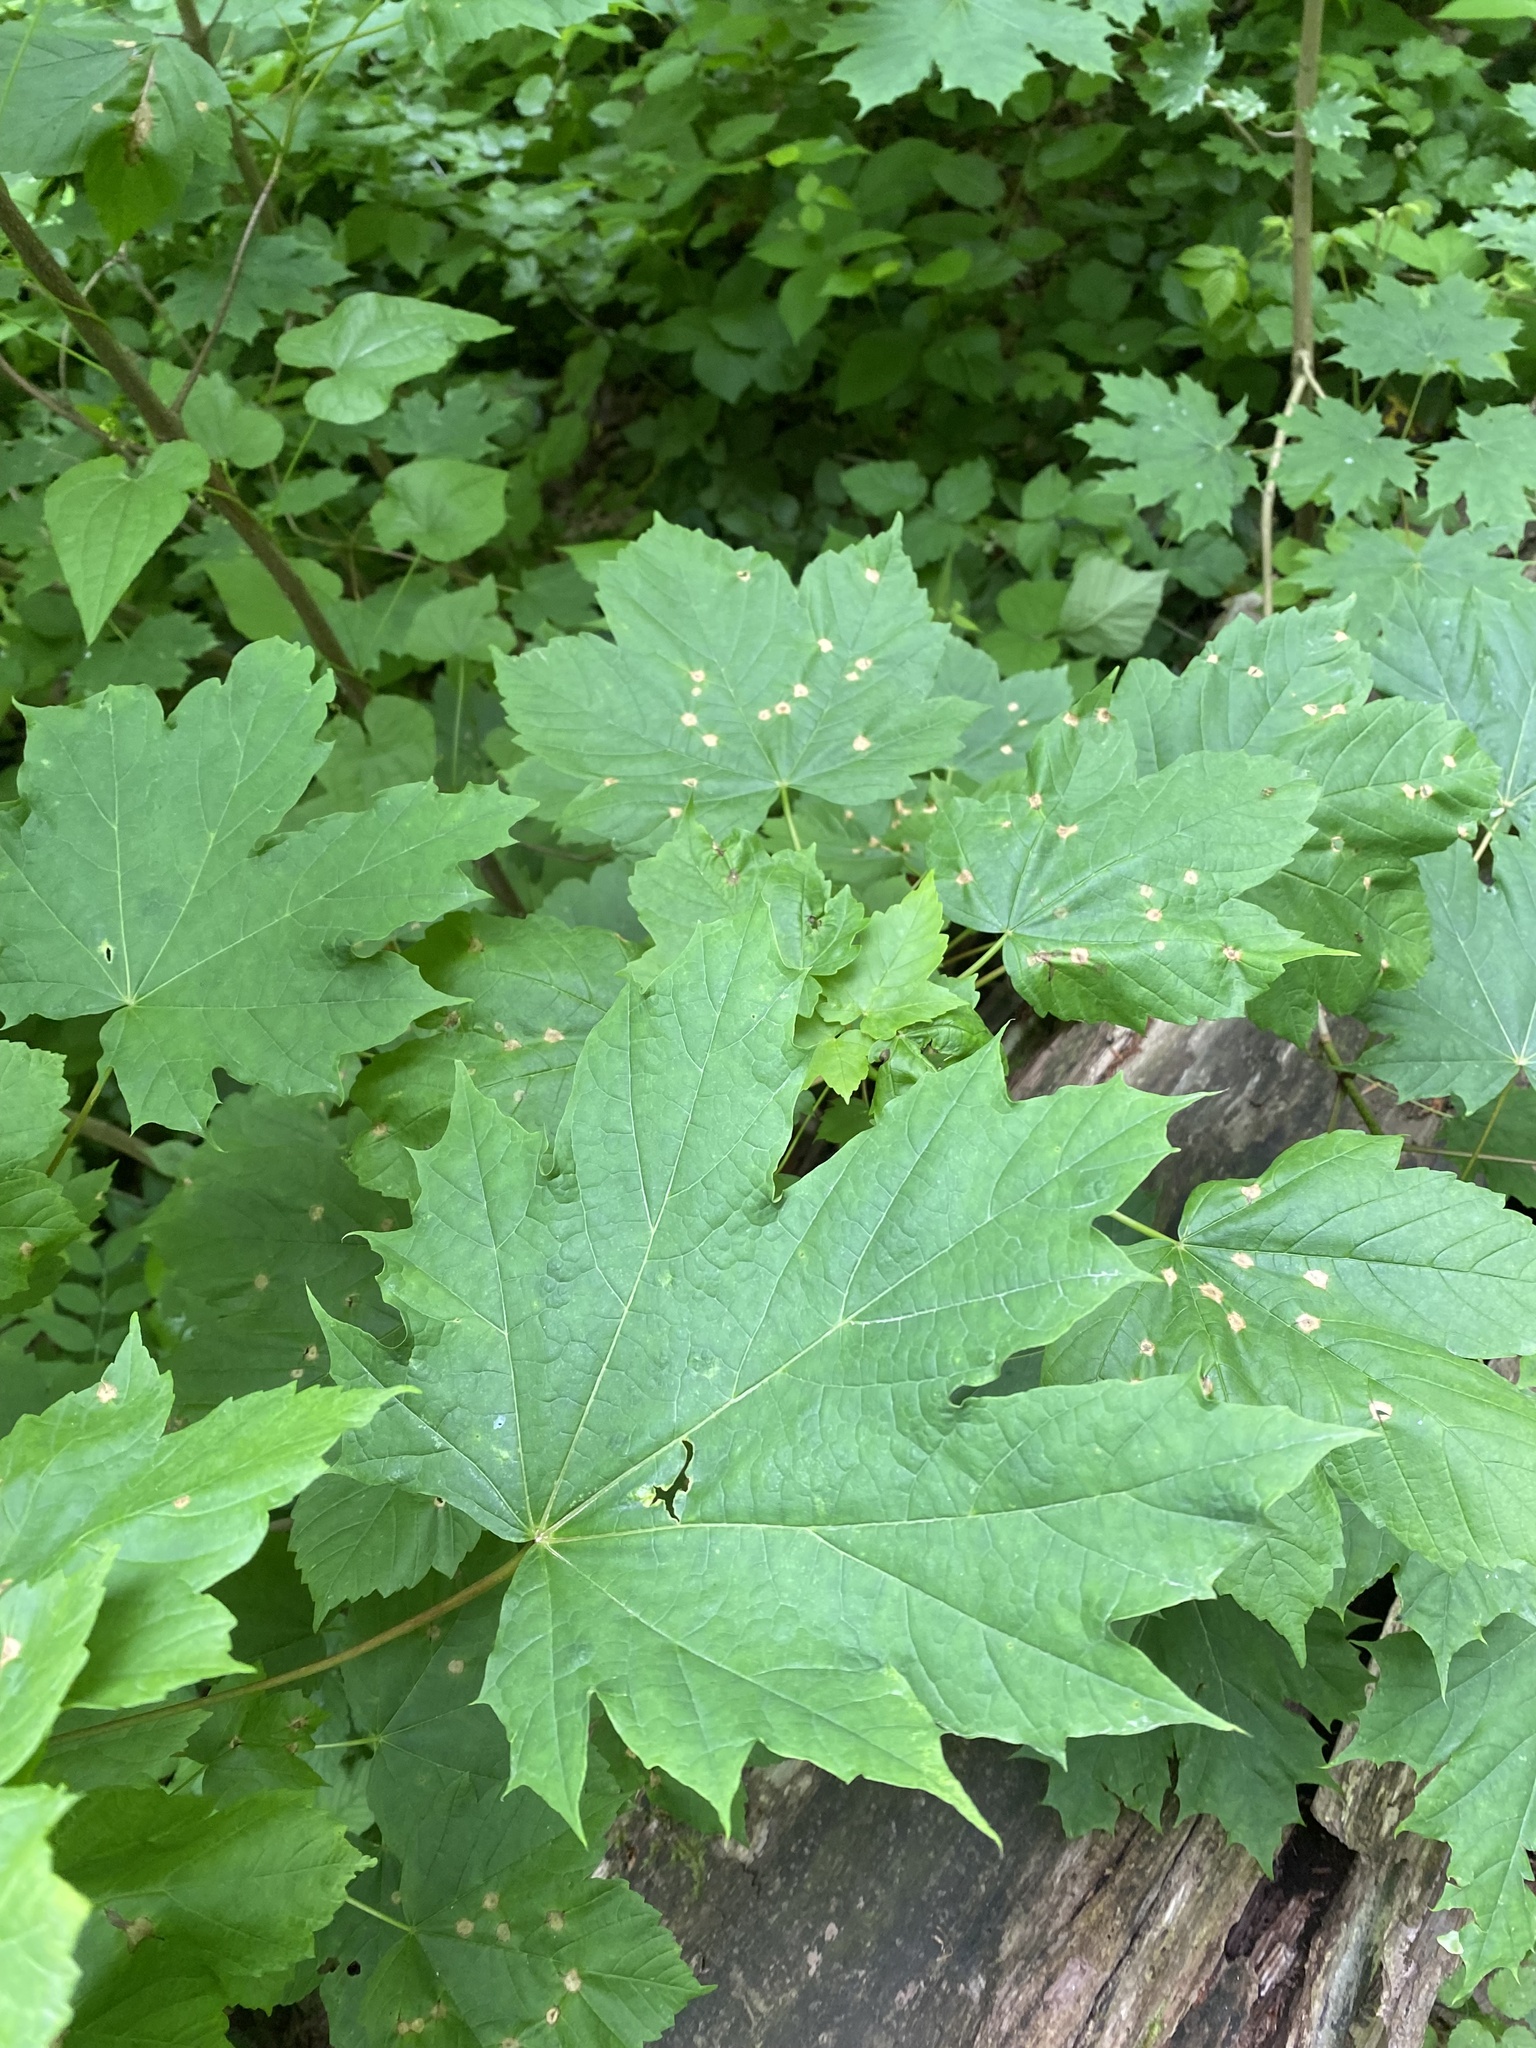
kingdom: Plantae
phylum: Tracheophyta
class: Magnoliopsida
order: Sapindales
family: Sapindaceae
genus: Acer
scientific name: Acer pseudoplatanus
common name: Sycamore
